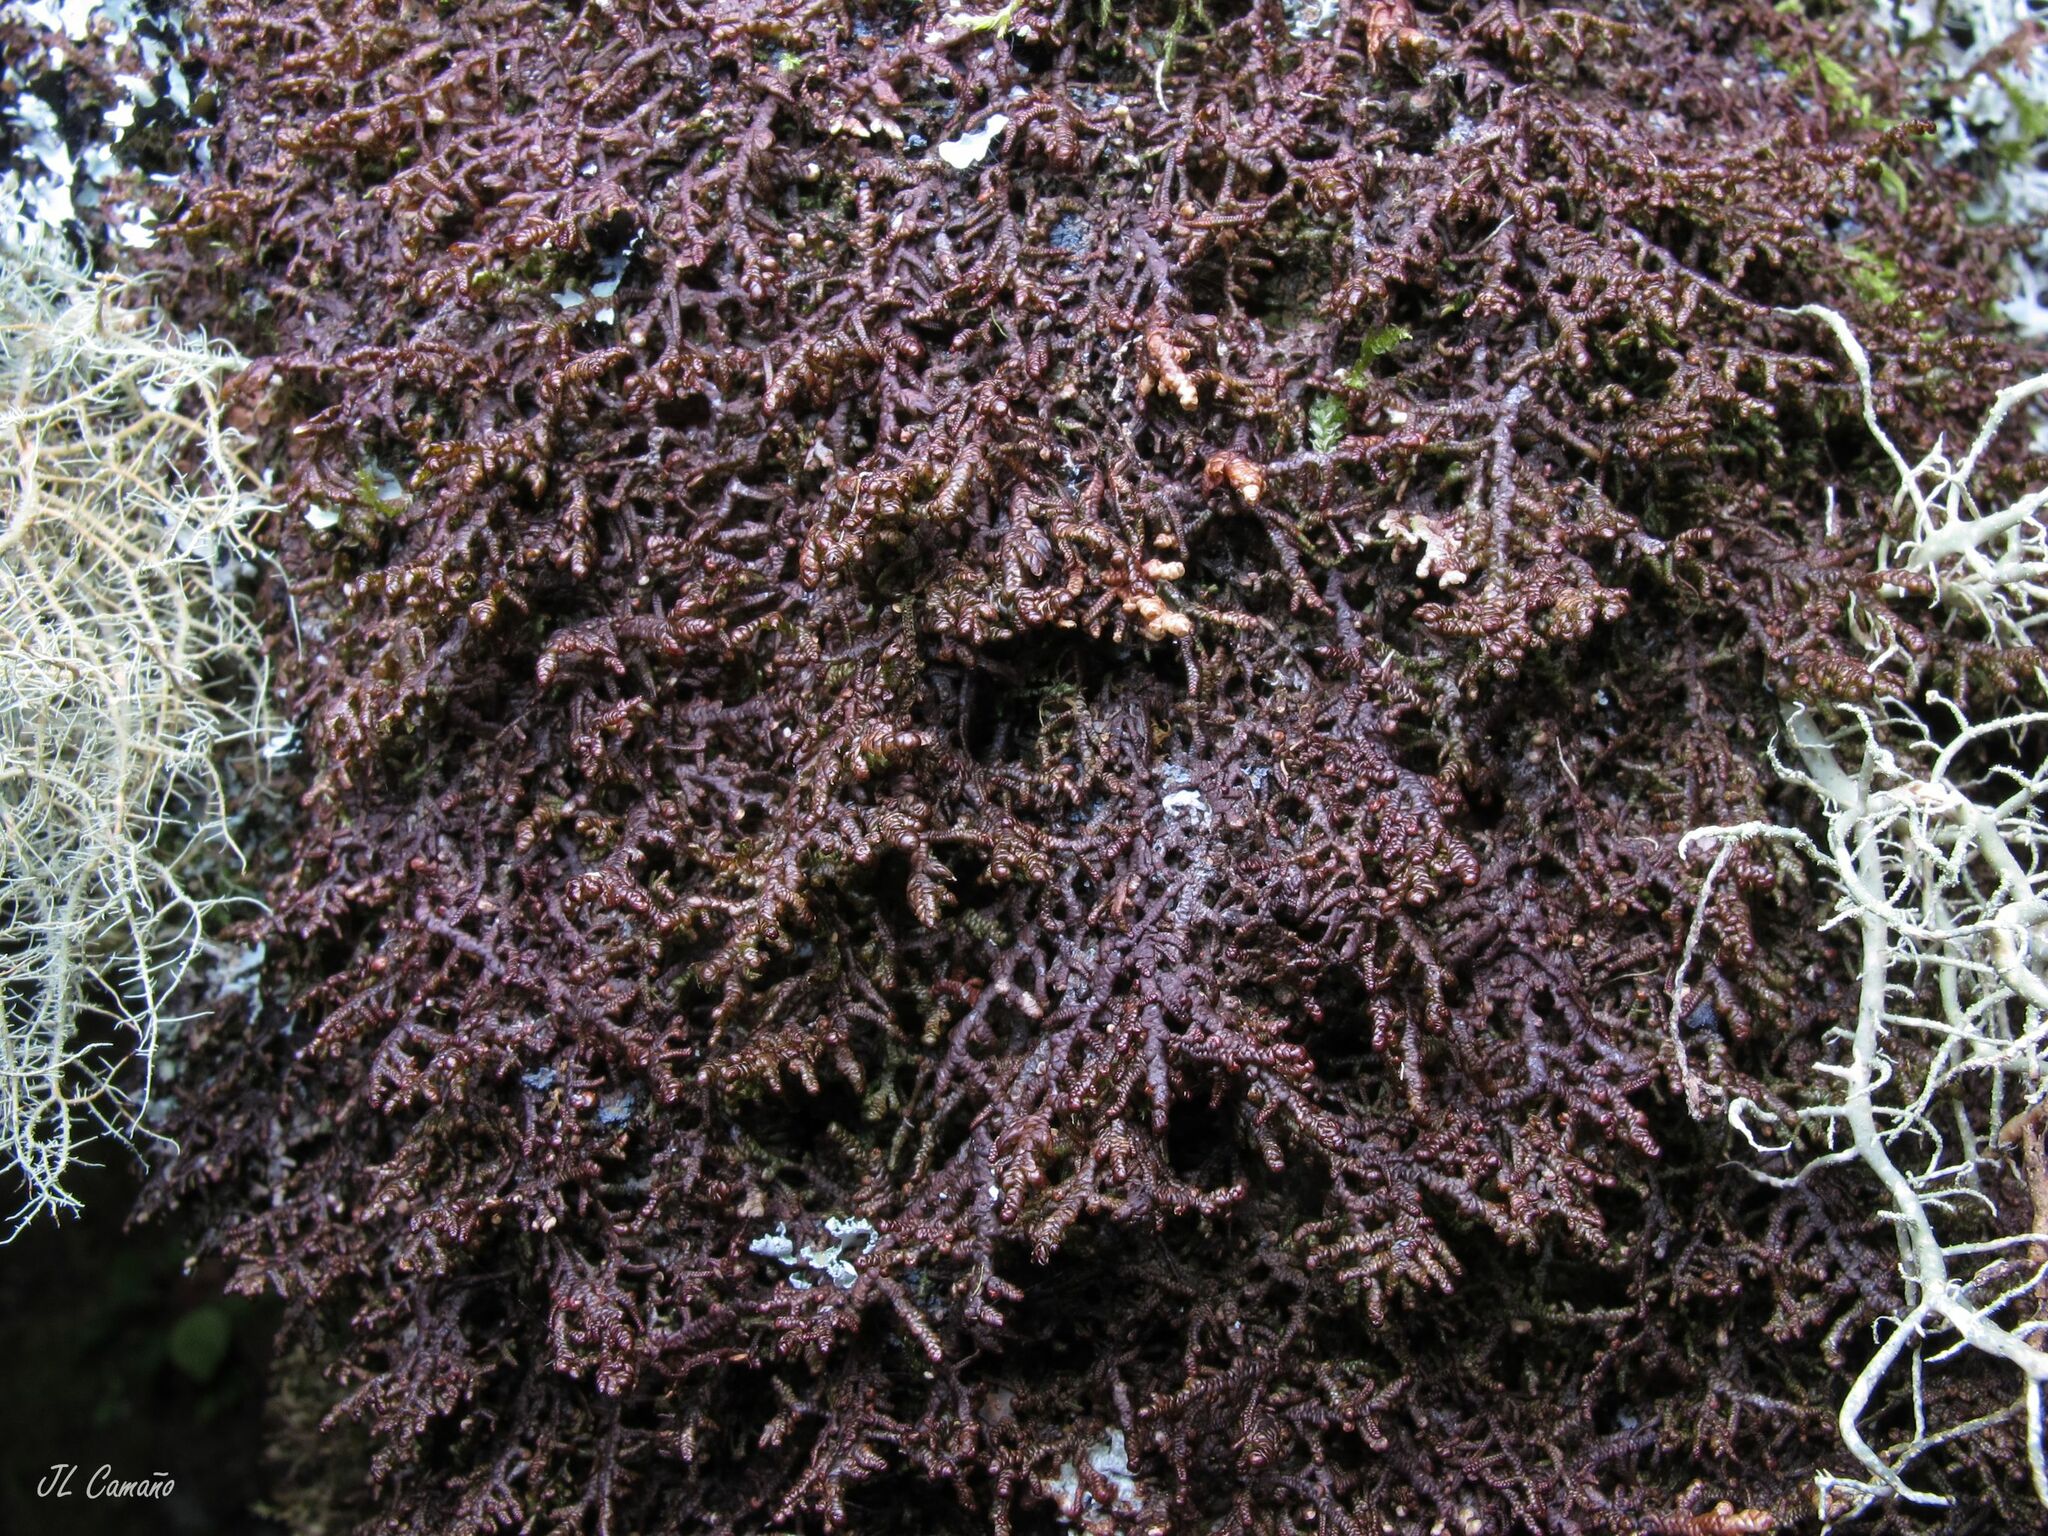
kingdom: Plantae
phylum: Marchantiophyta
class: Jungermanniopsida
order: Porellales
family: Frullaniaceae
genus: Frullania
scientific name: Frullania tamarisci
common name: Tamarisk scalewort
